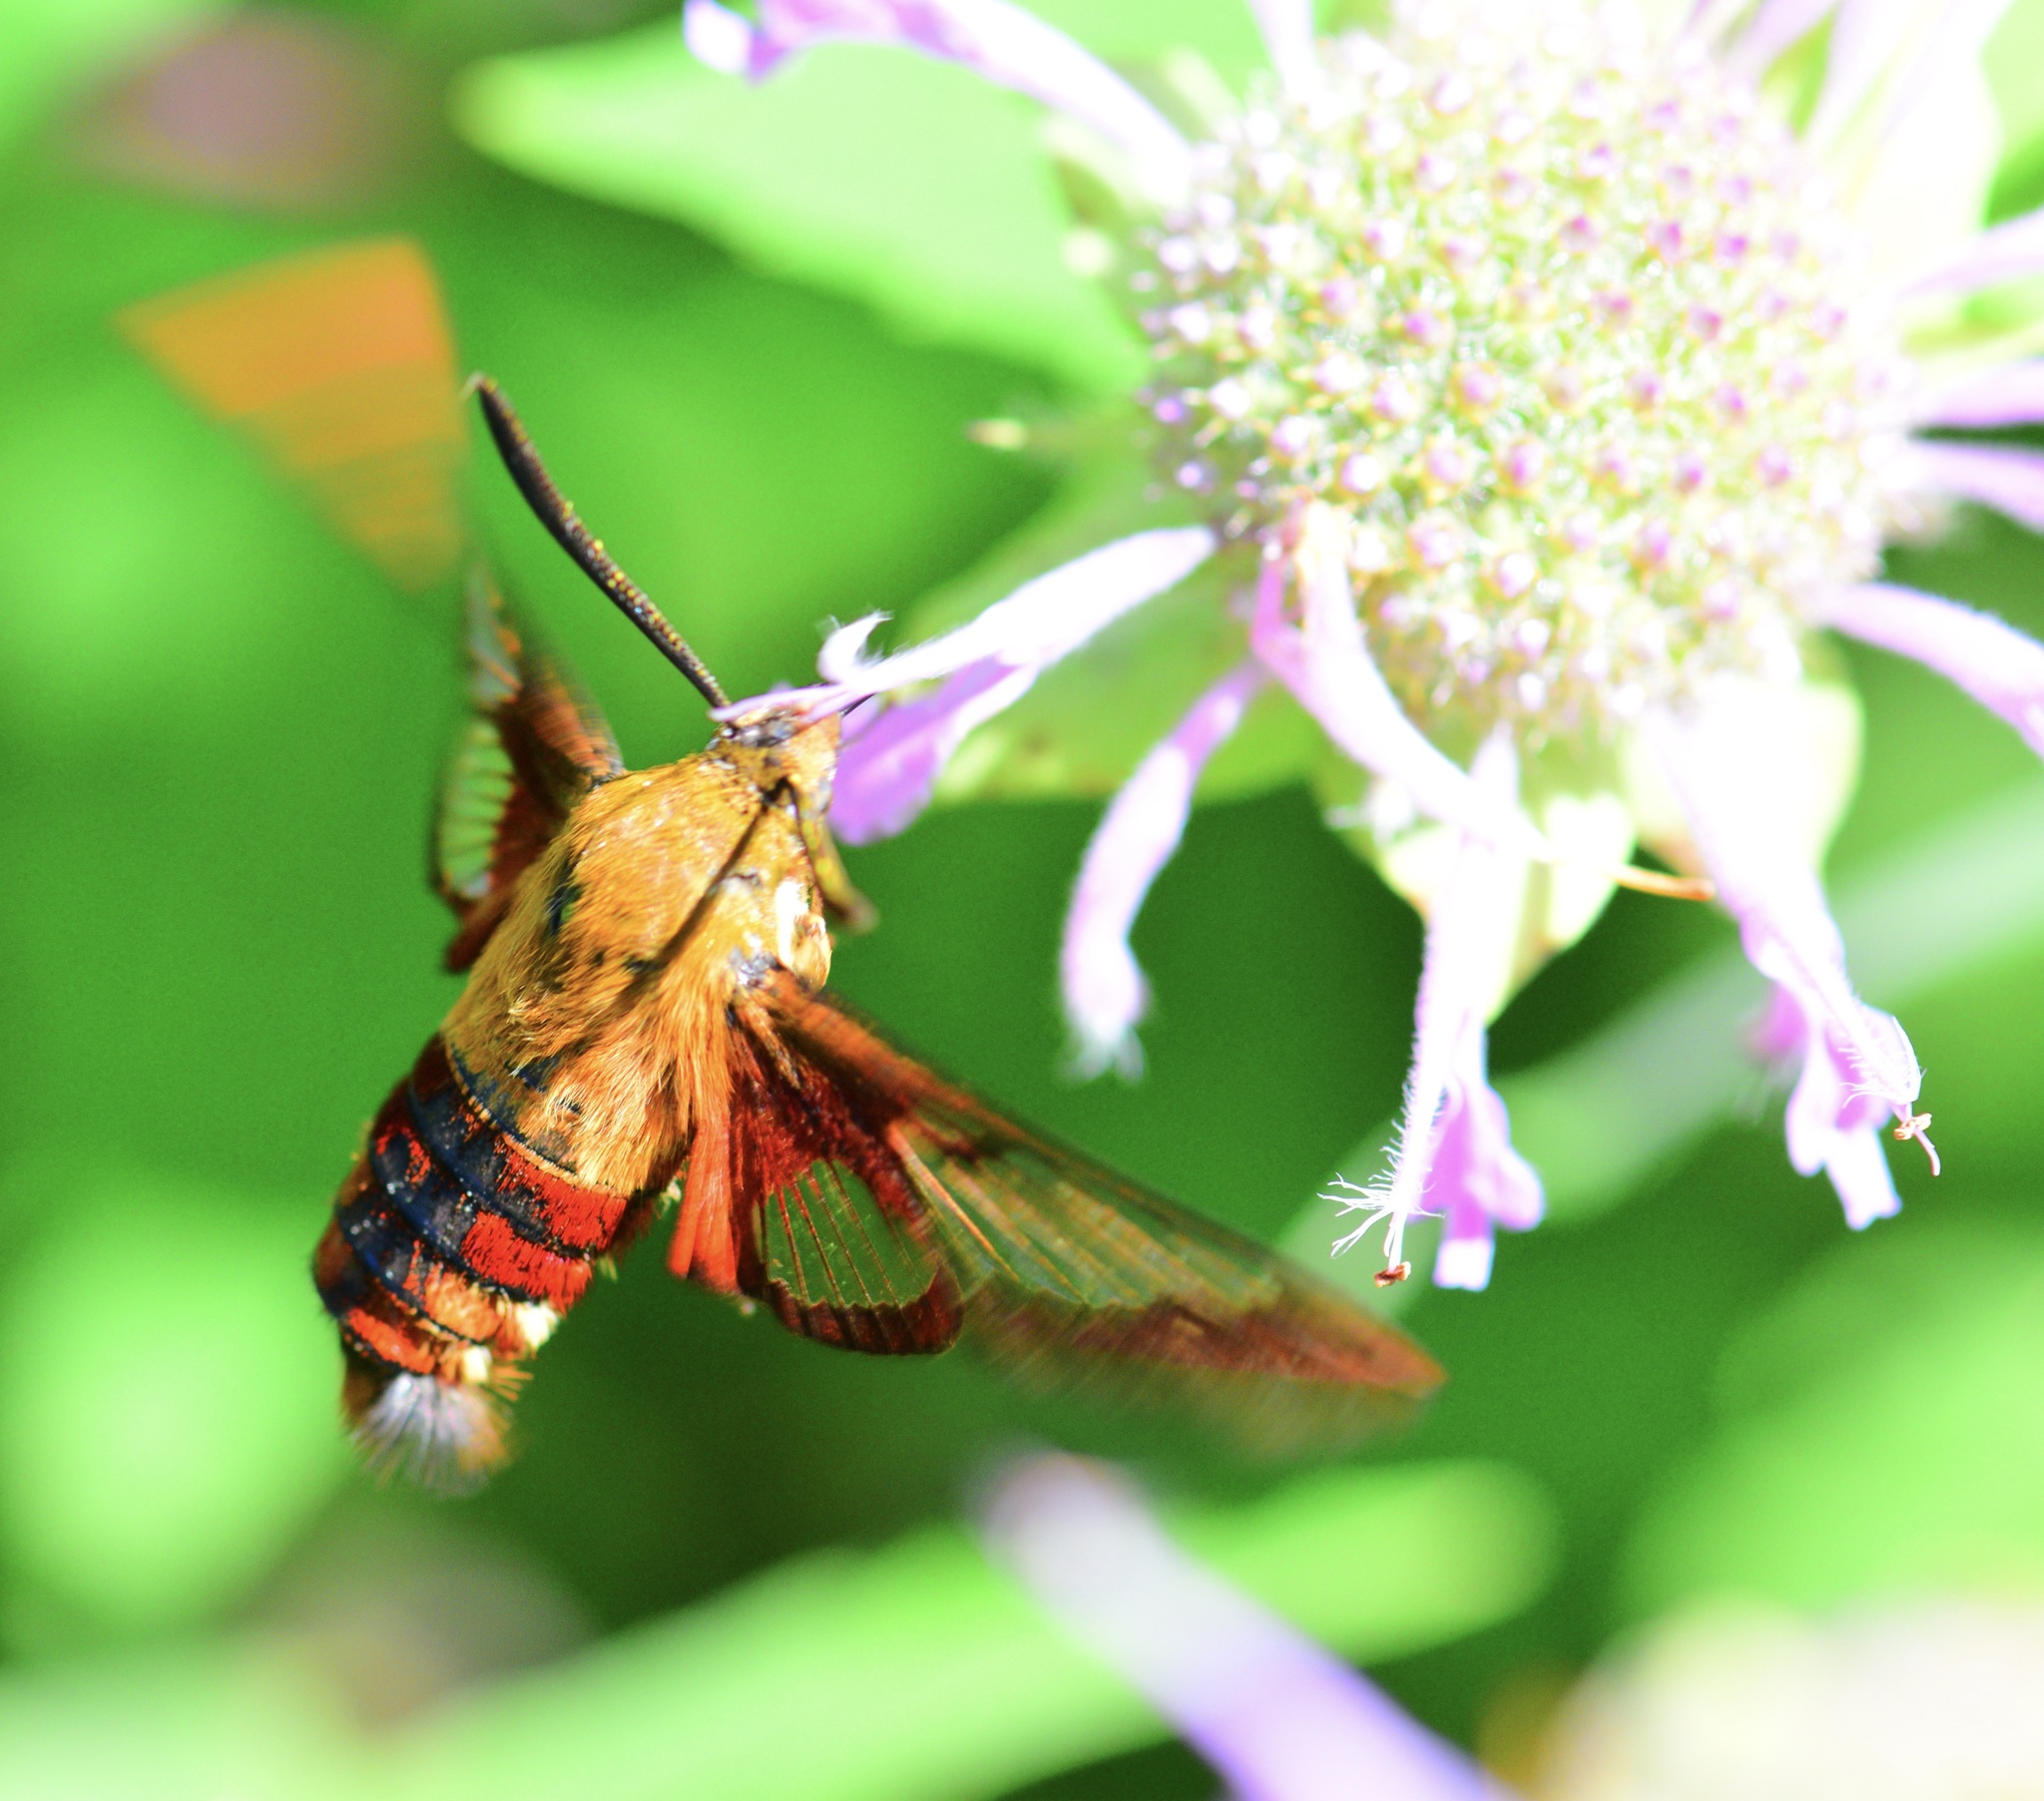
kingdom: Animalia
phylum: Arthropoda
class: Insecta
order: Lepidoptera
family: Sphingidae
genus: Hemaris
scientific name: Hemaris thysbe
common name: Common clear-wing
